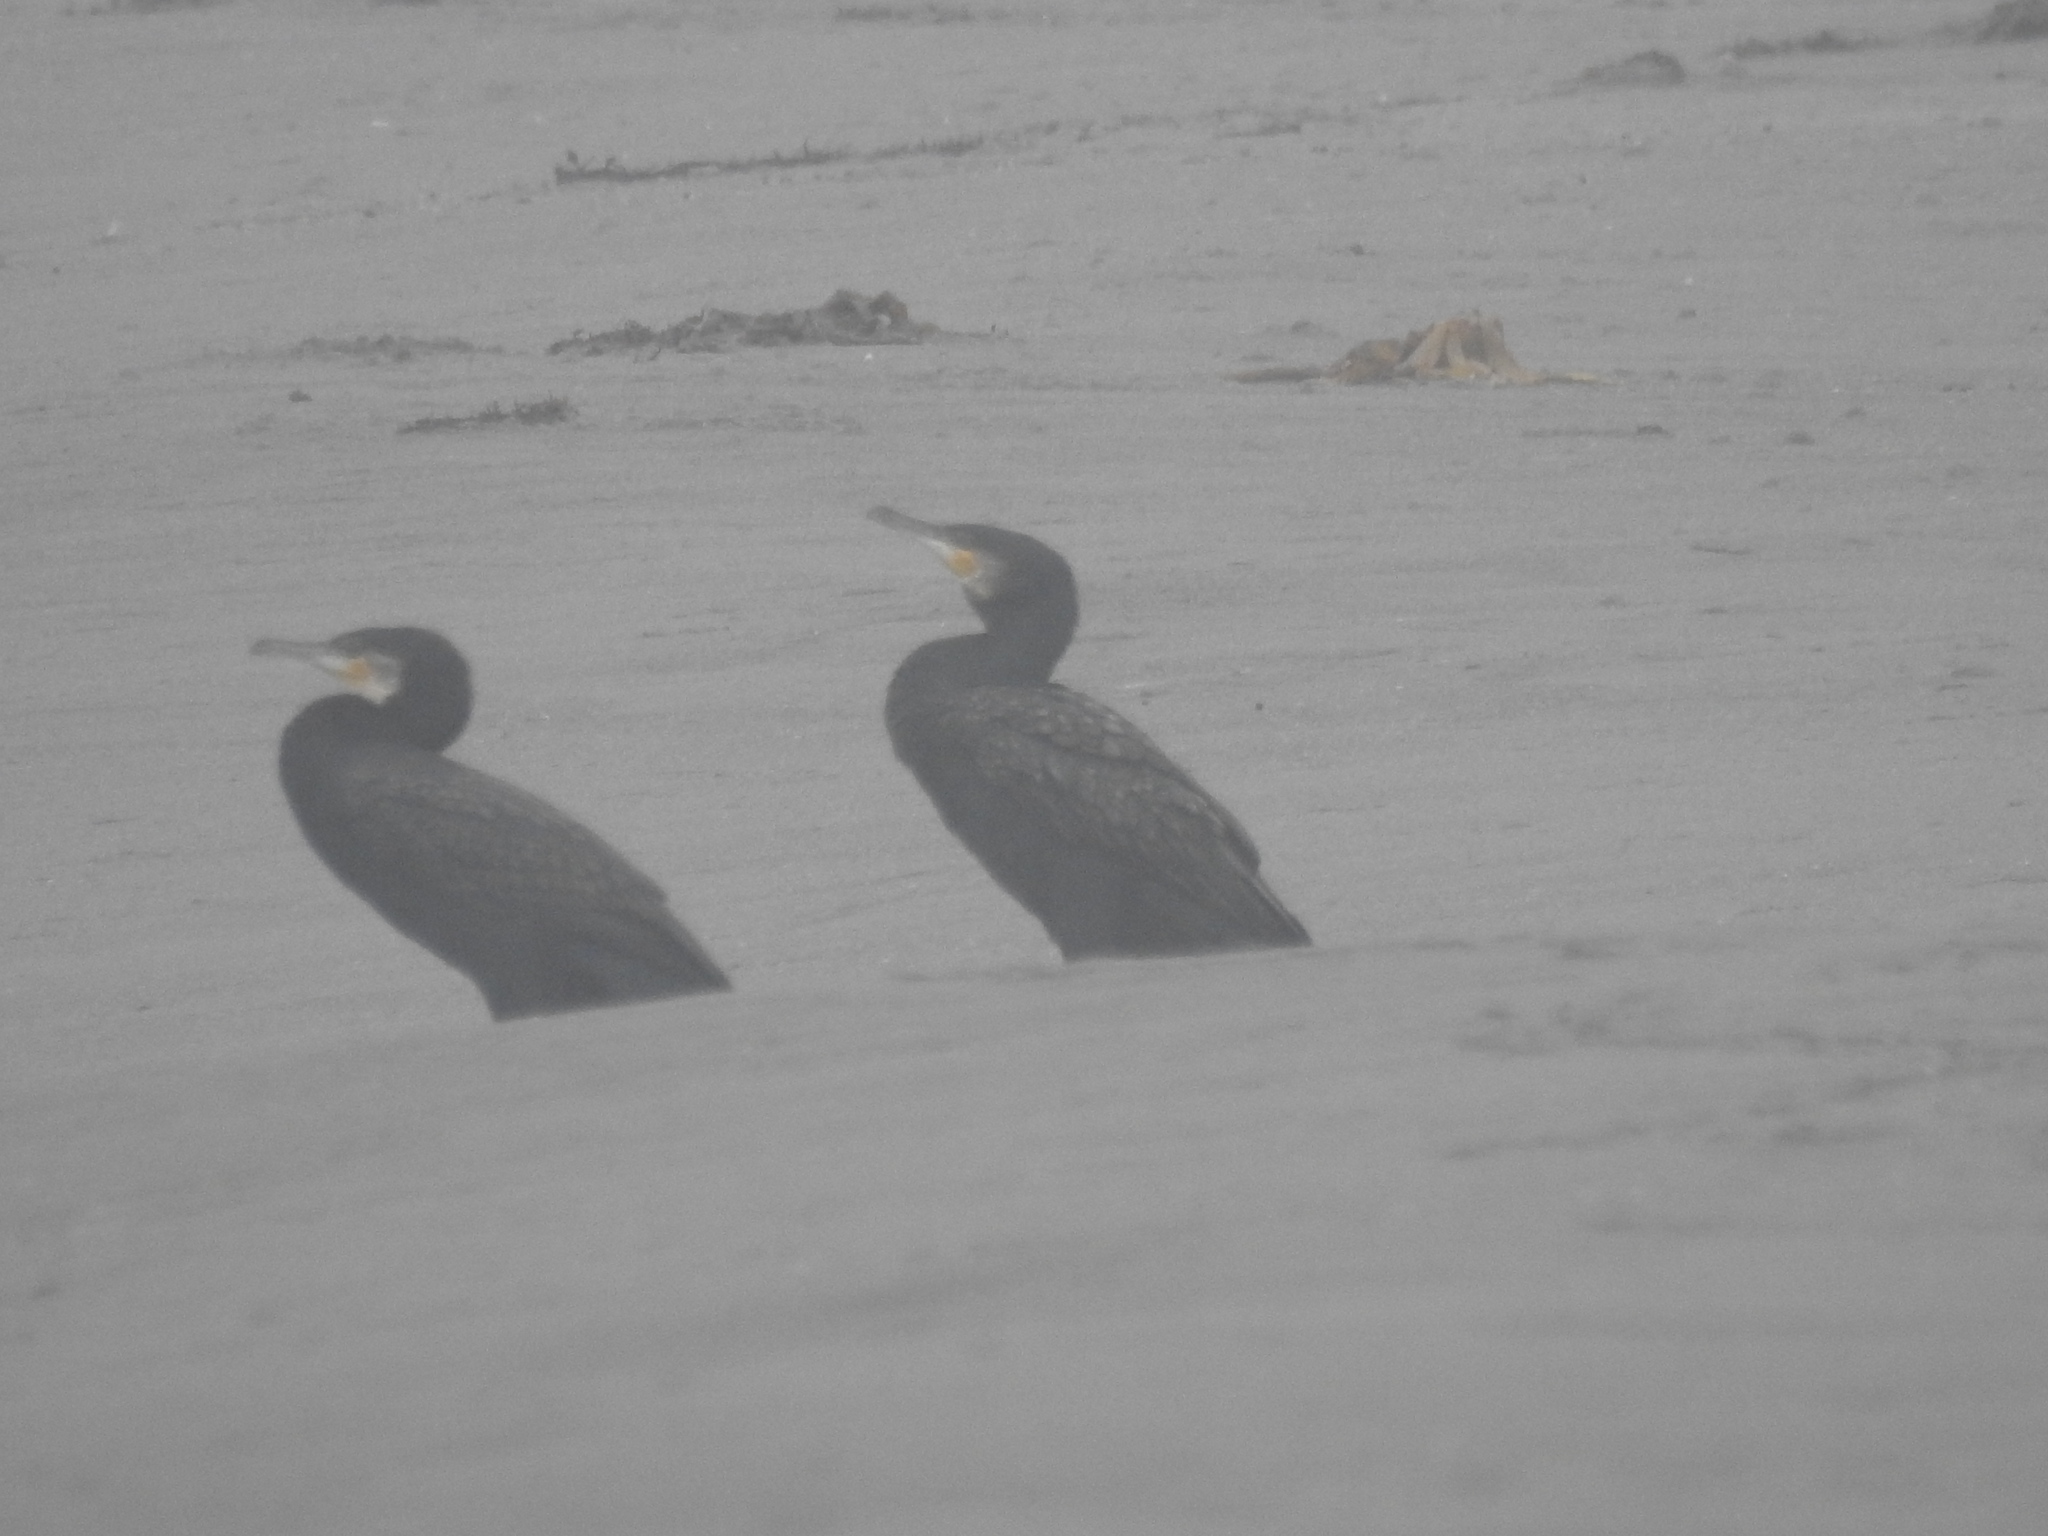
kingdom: Animalia
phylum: Chordata
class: Aves
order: Suliformes
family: Phalacrocoracidae
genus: Phalacrocorax
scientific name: Phalacrocorax carbo
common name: Great cormorant
